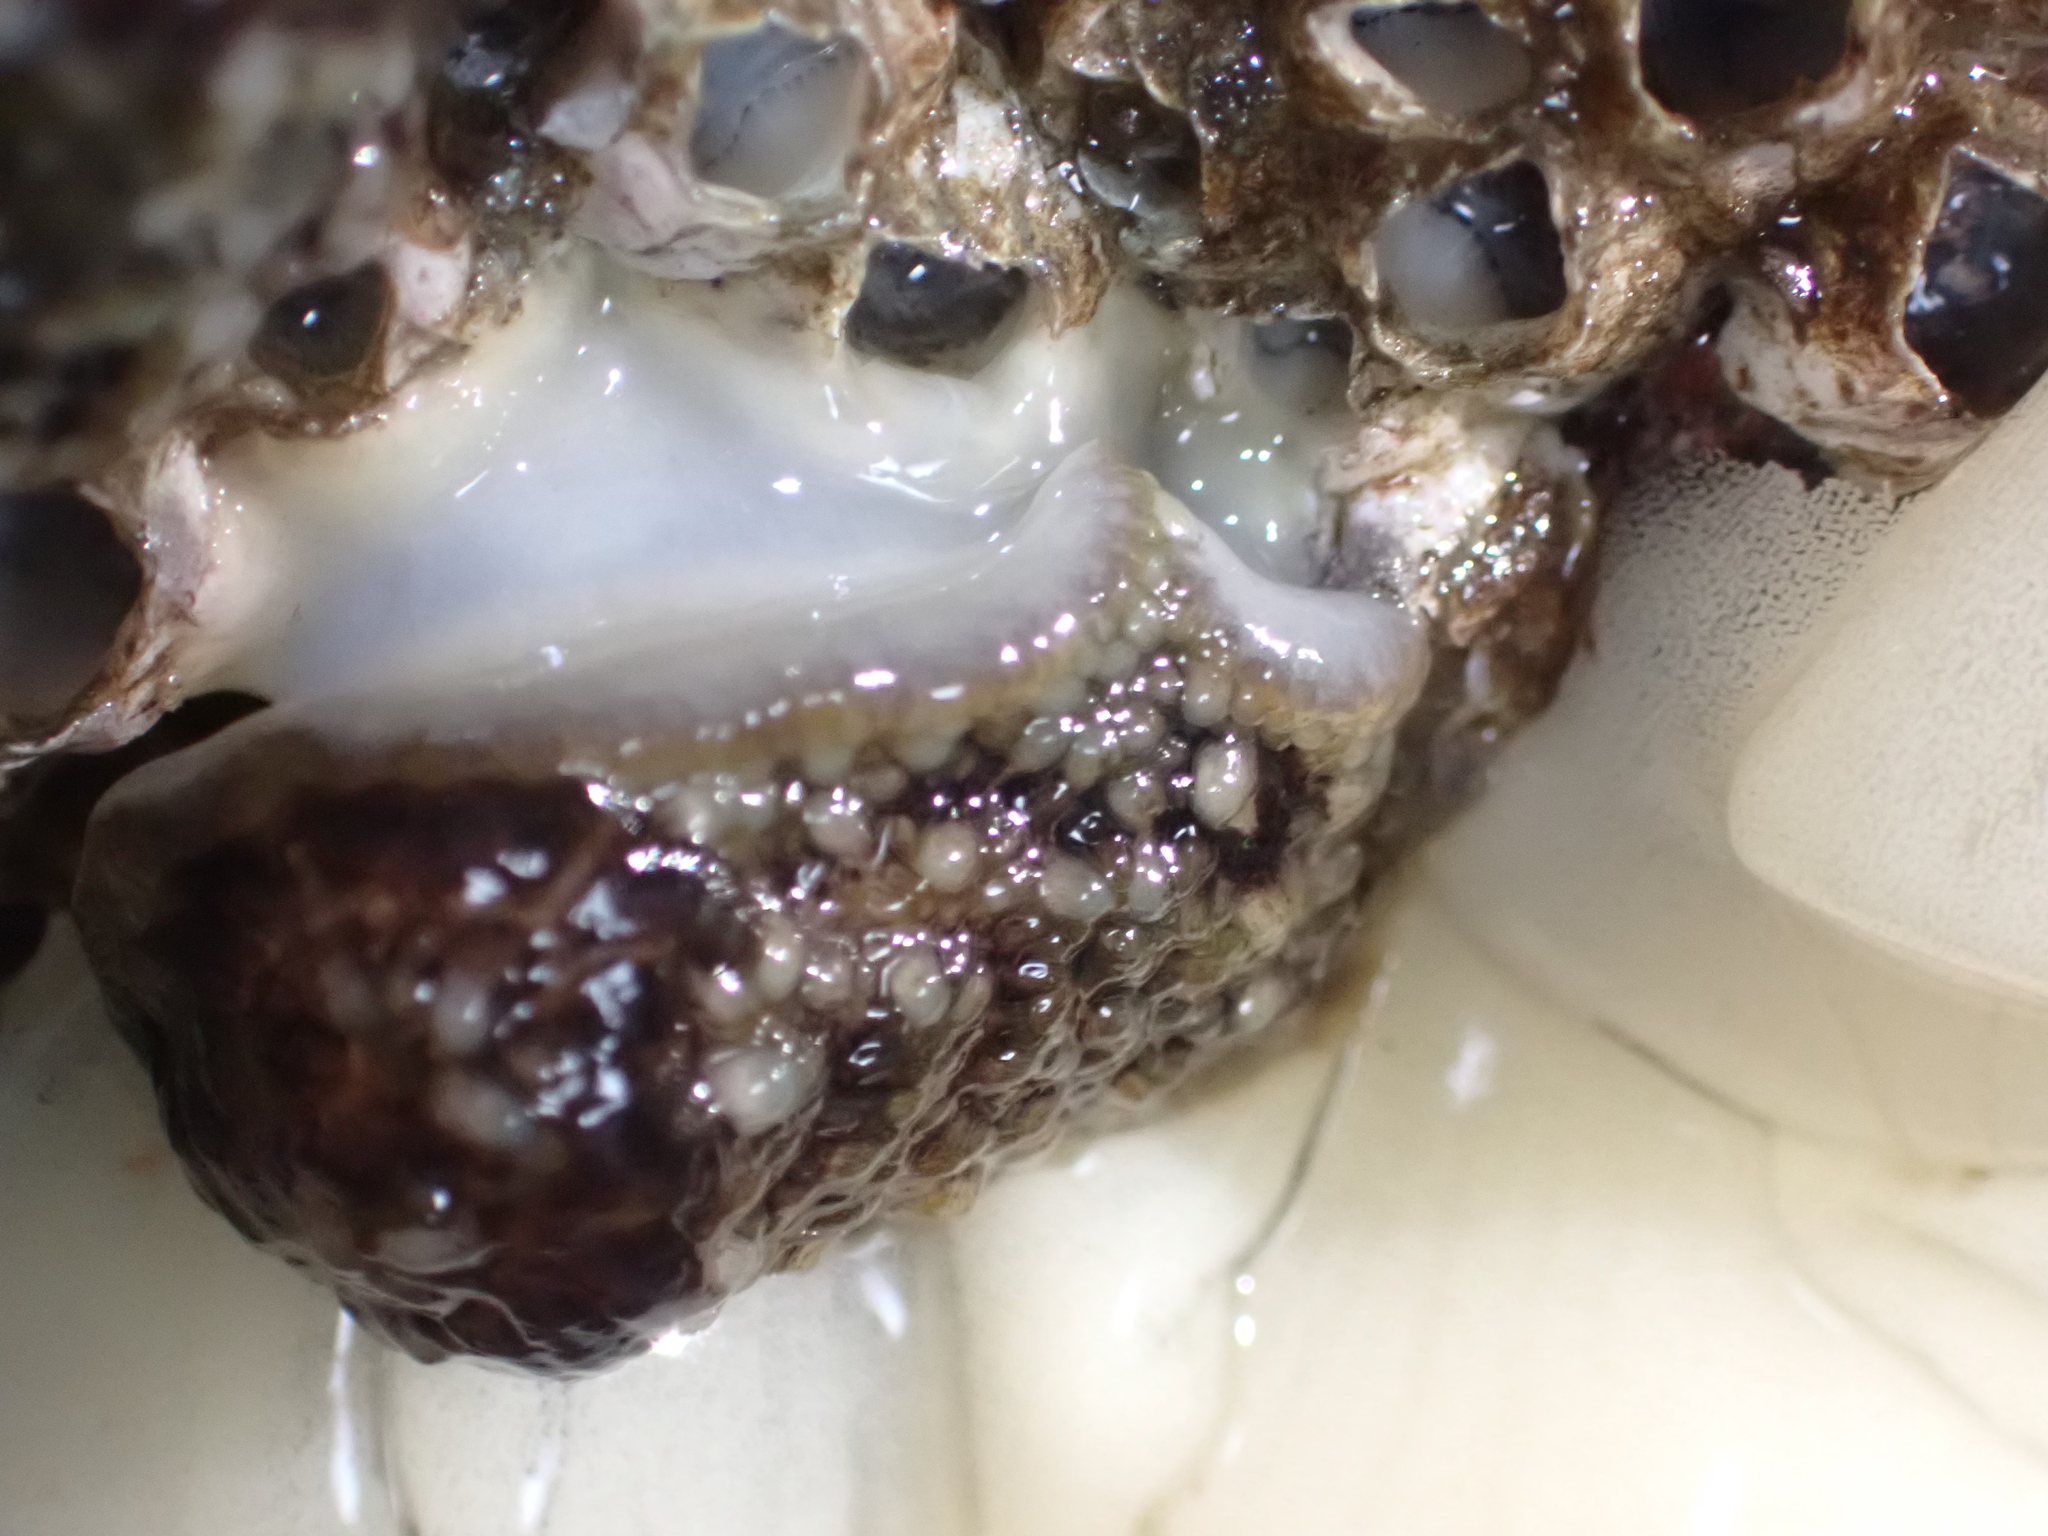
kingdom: Animalia
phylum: Mollusca
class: Gastropoda
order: Nudibranchia
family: Onchidorididae
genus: Onchidoris
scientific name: Onchidoris bilamellata
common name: Barnacle-eating onchidoris
